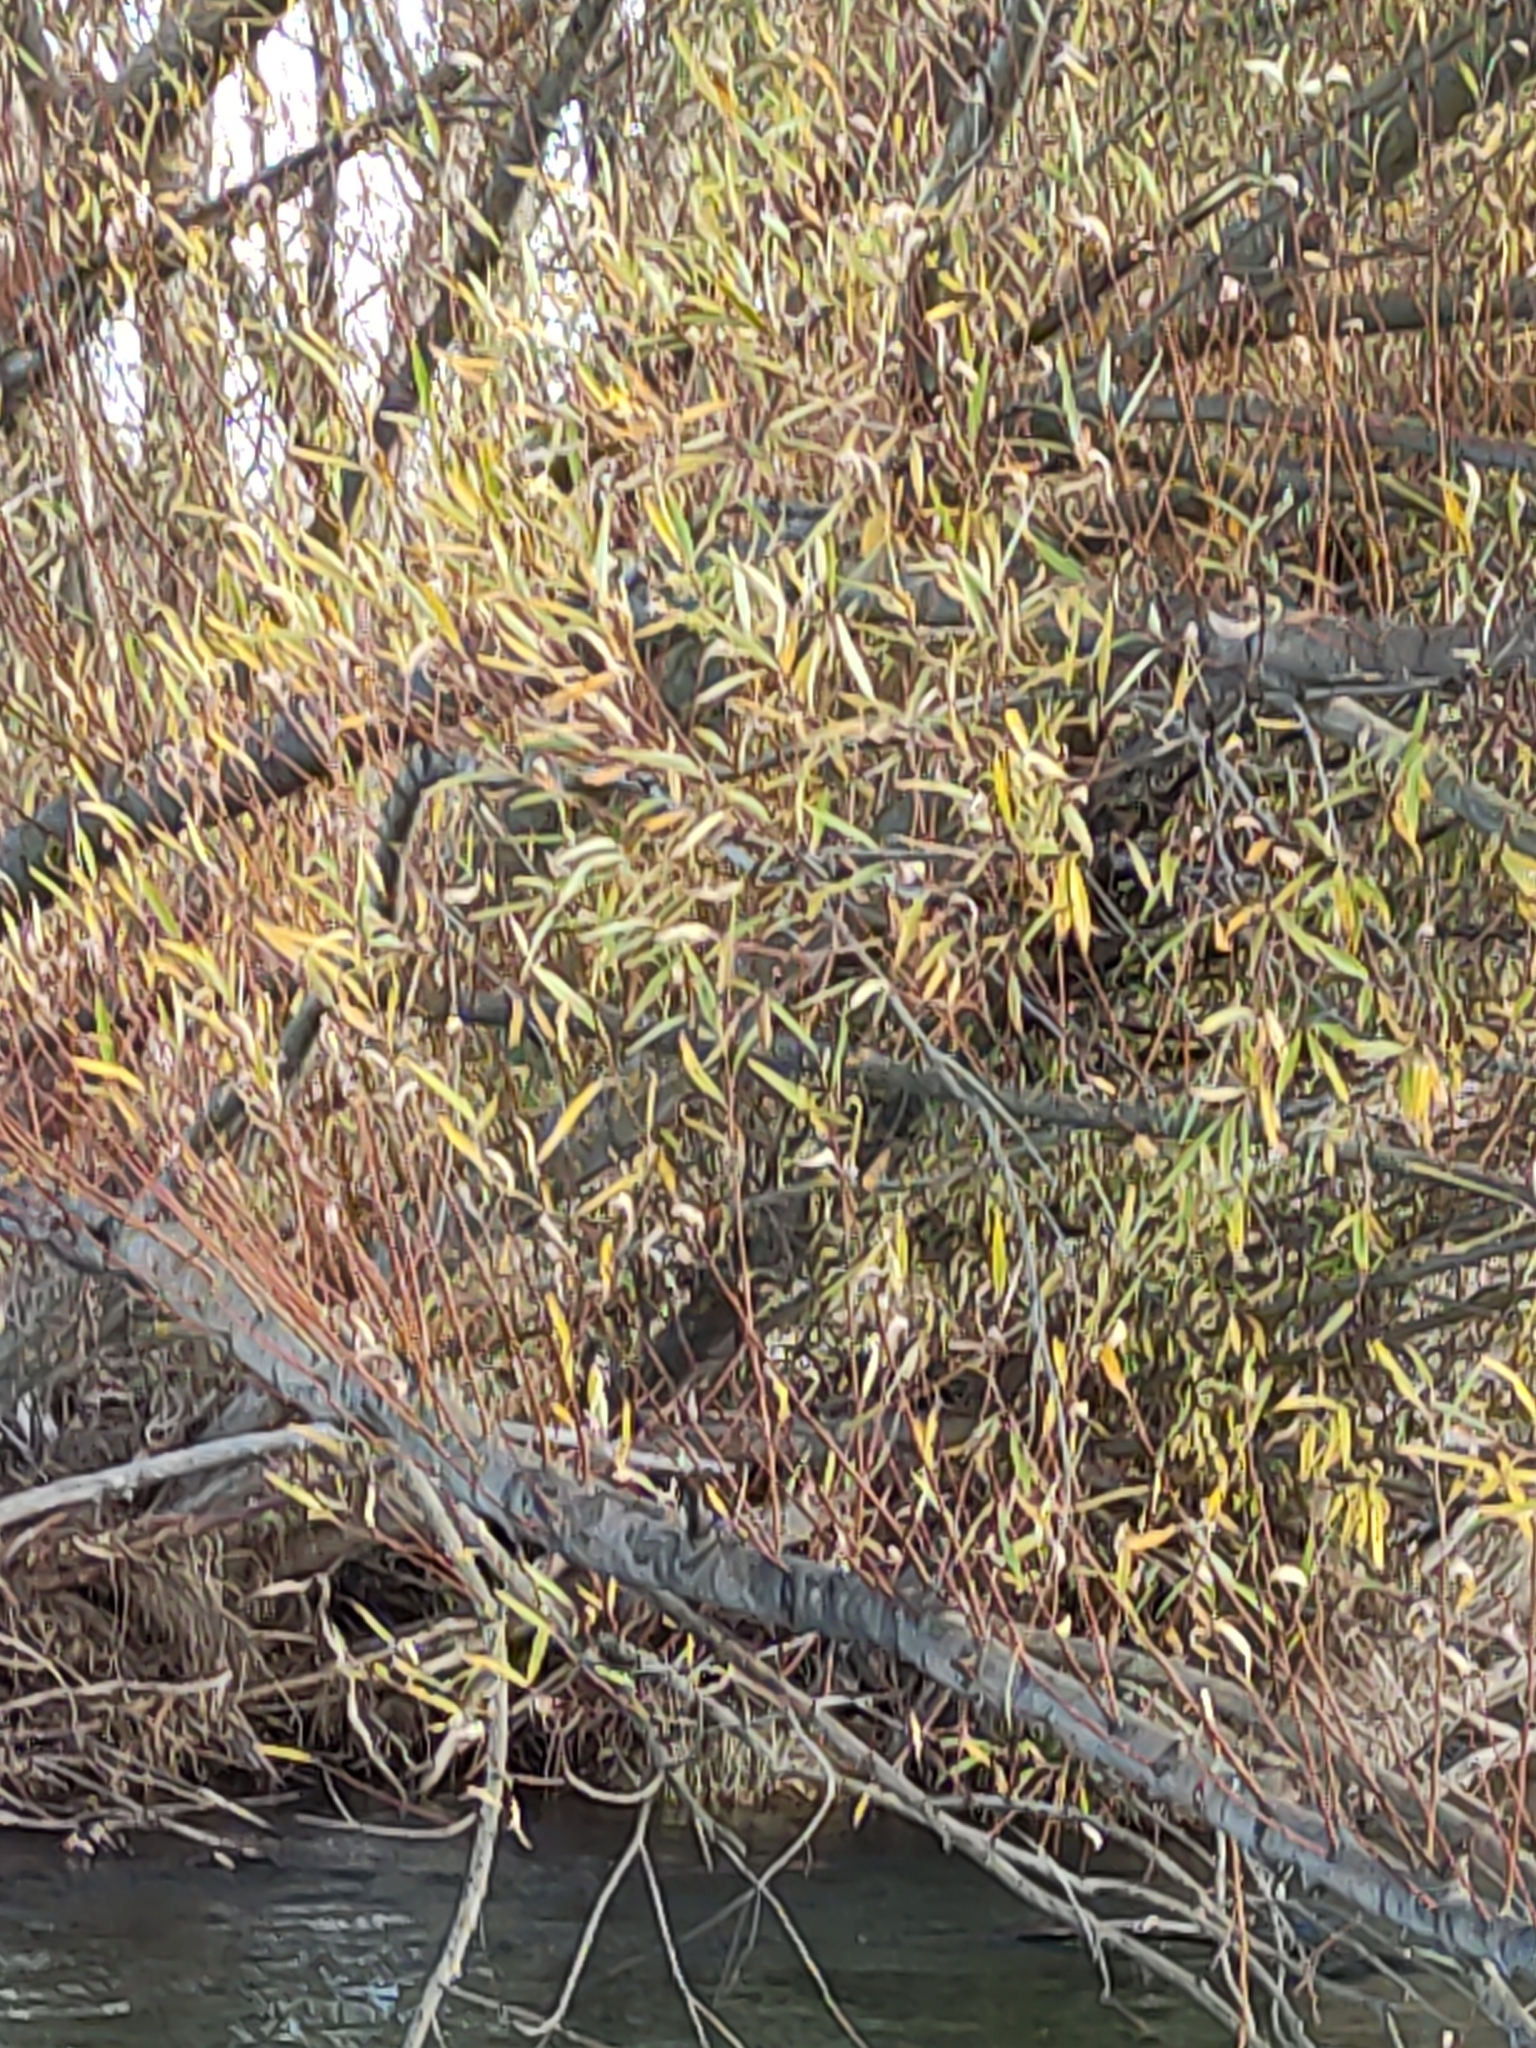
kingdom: Plantae
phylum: Tracheophyta
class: Magnoliopsida
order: Malpighiales
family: Salicaceae
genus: Salix
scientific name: Salix fragilis
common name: Crack willow
